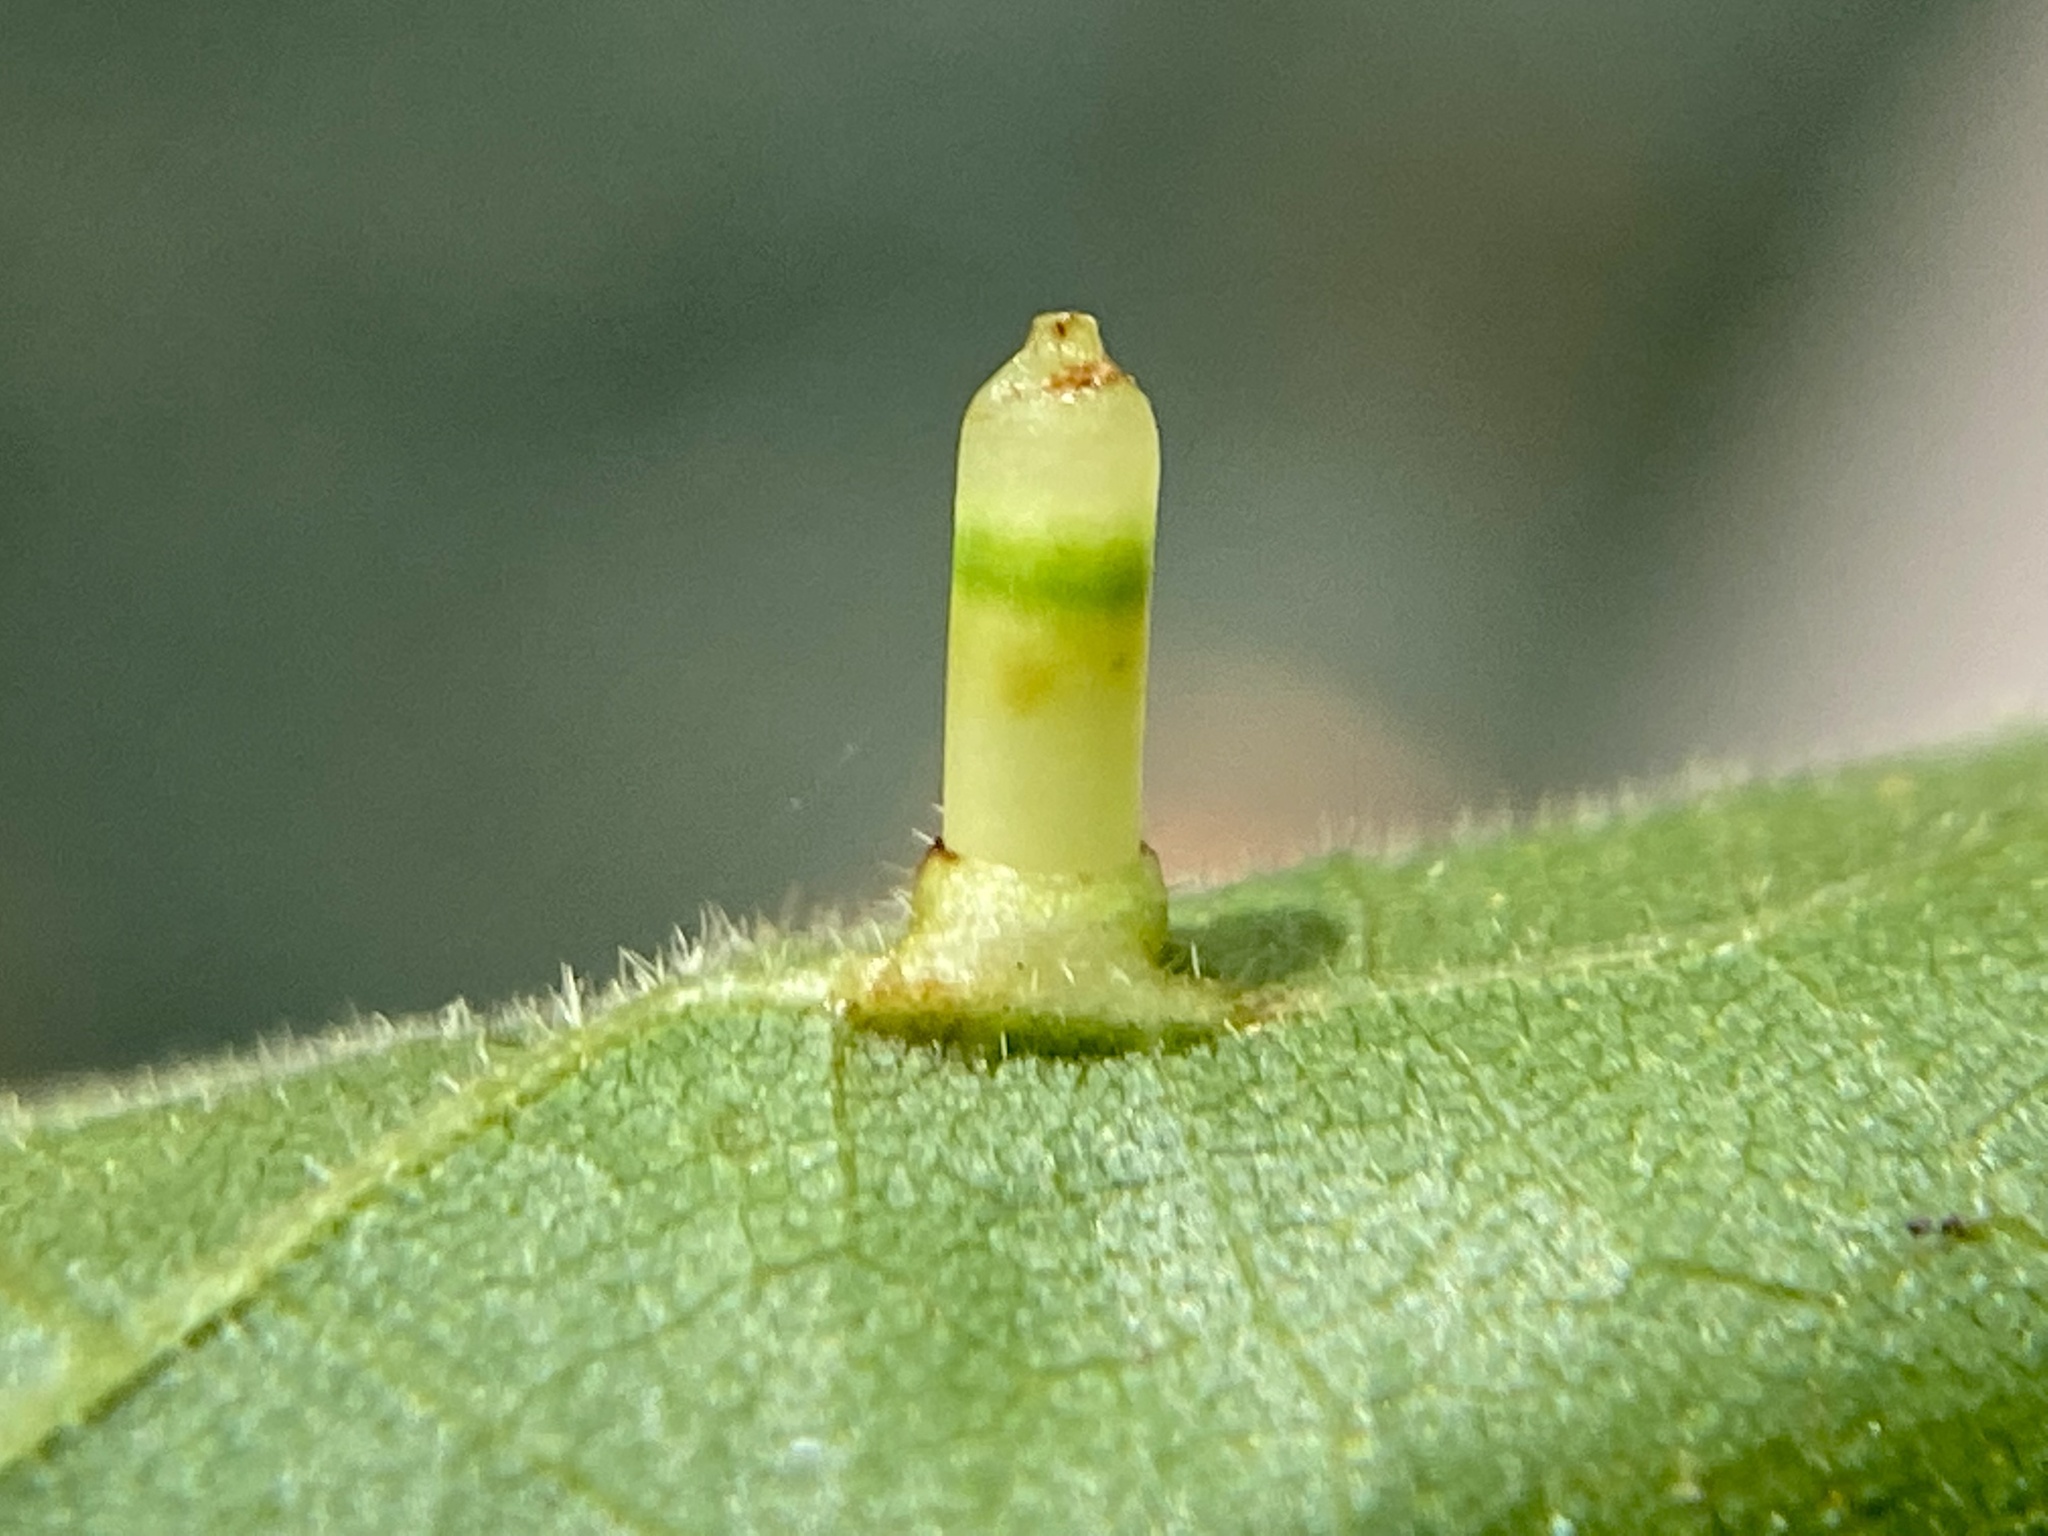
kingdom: Animalia
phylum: Arthropoda
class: Insecta
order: Diptera
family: Cecidomyiidae
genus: Caryomyia
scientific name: Caryomyia tubicola
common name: Hickory bullet gall midge
